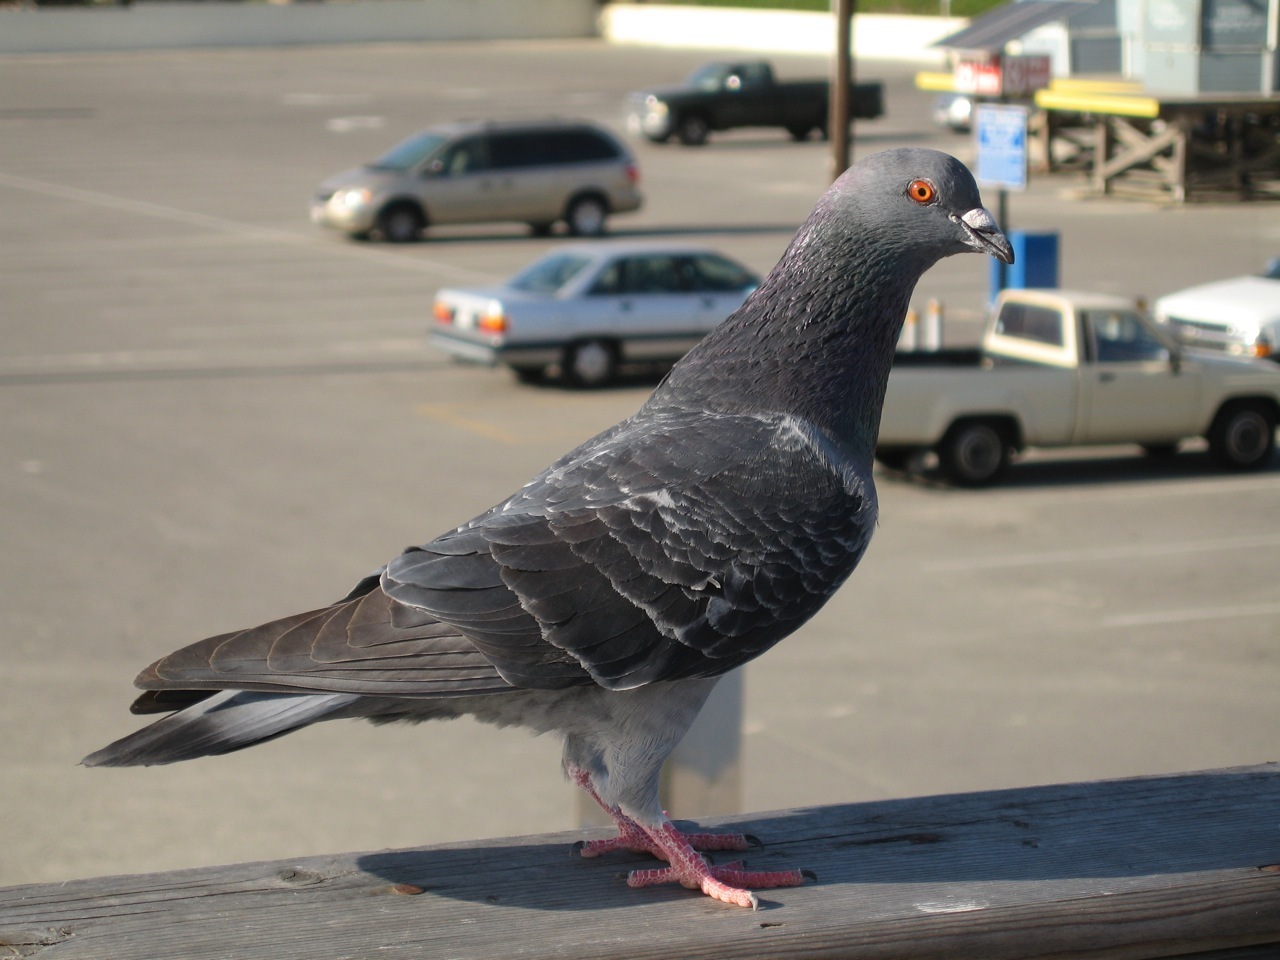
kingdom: Animalia
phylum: Chordata
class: Aves
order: Columbiformes
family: Columbidae
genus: Columba
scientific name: Columba livia
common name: Rock pigeon
